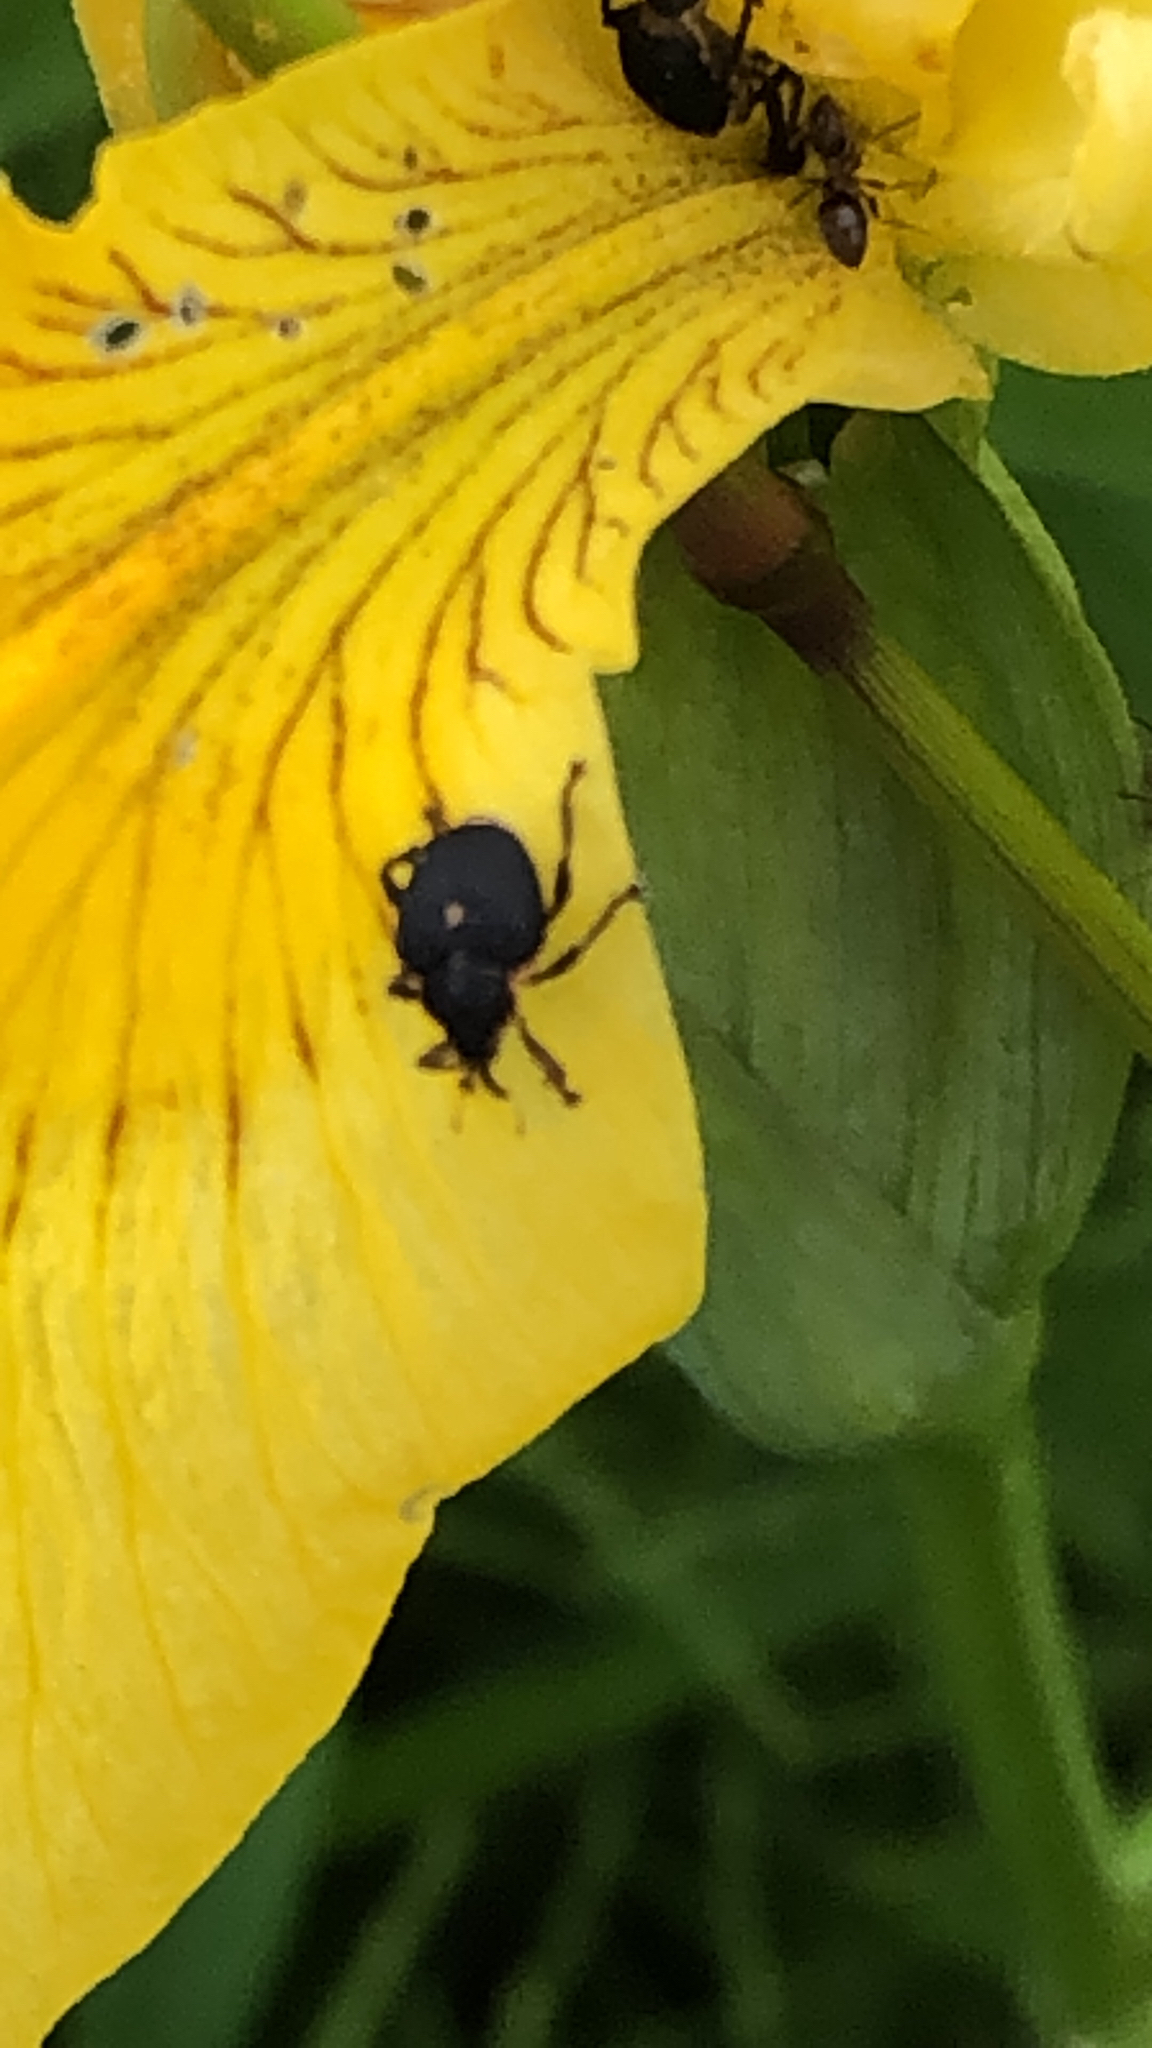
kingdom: Animalia
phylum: Arthropoda
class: Insecta
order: Coleoptera
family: Curculionidae
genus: Mononychus
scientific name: Mononychus punctumalbum
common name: Iris weevil
